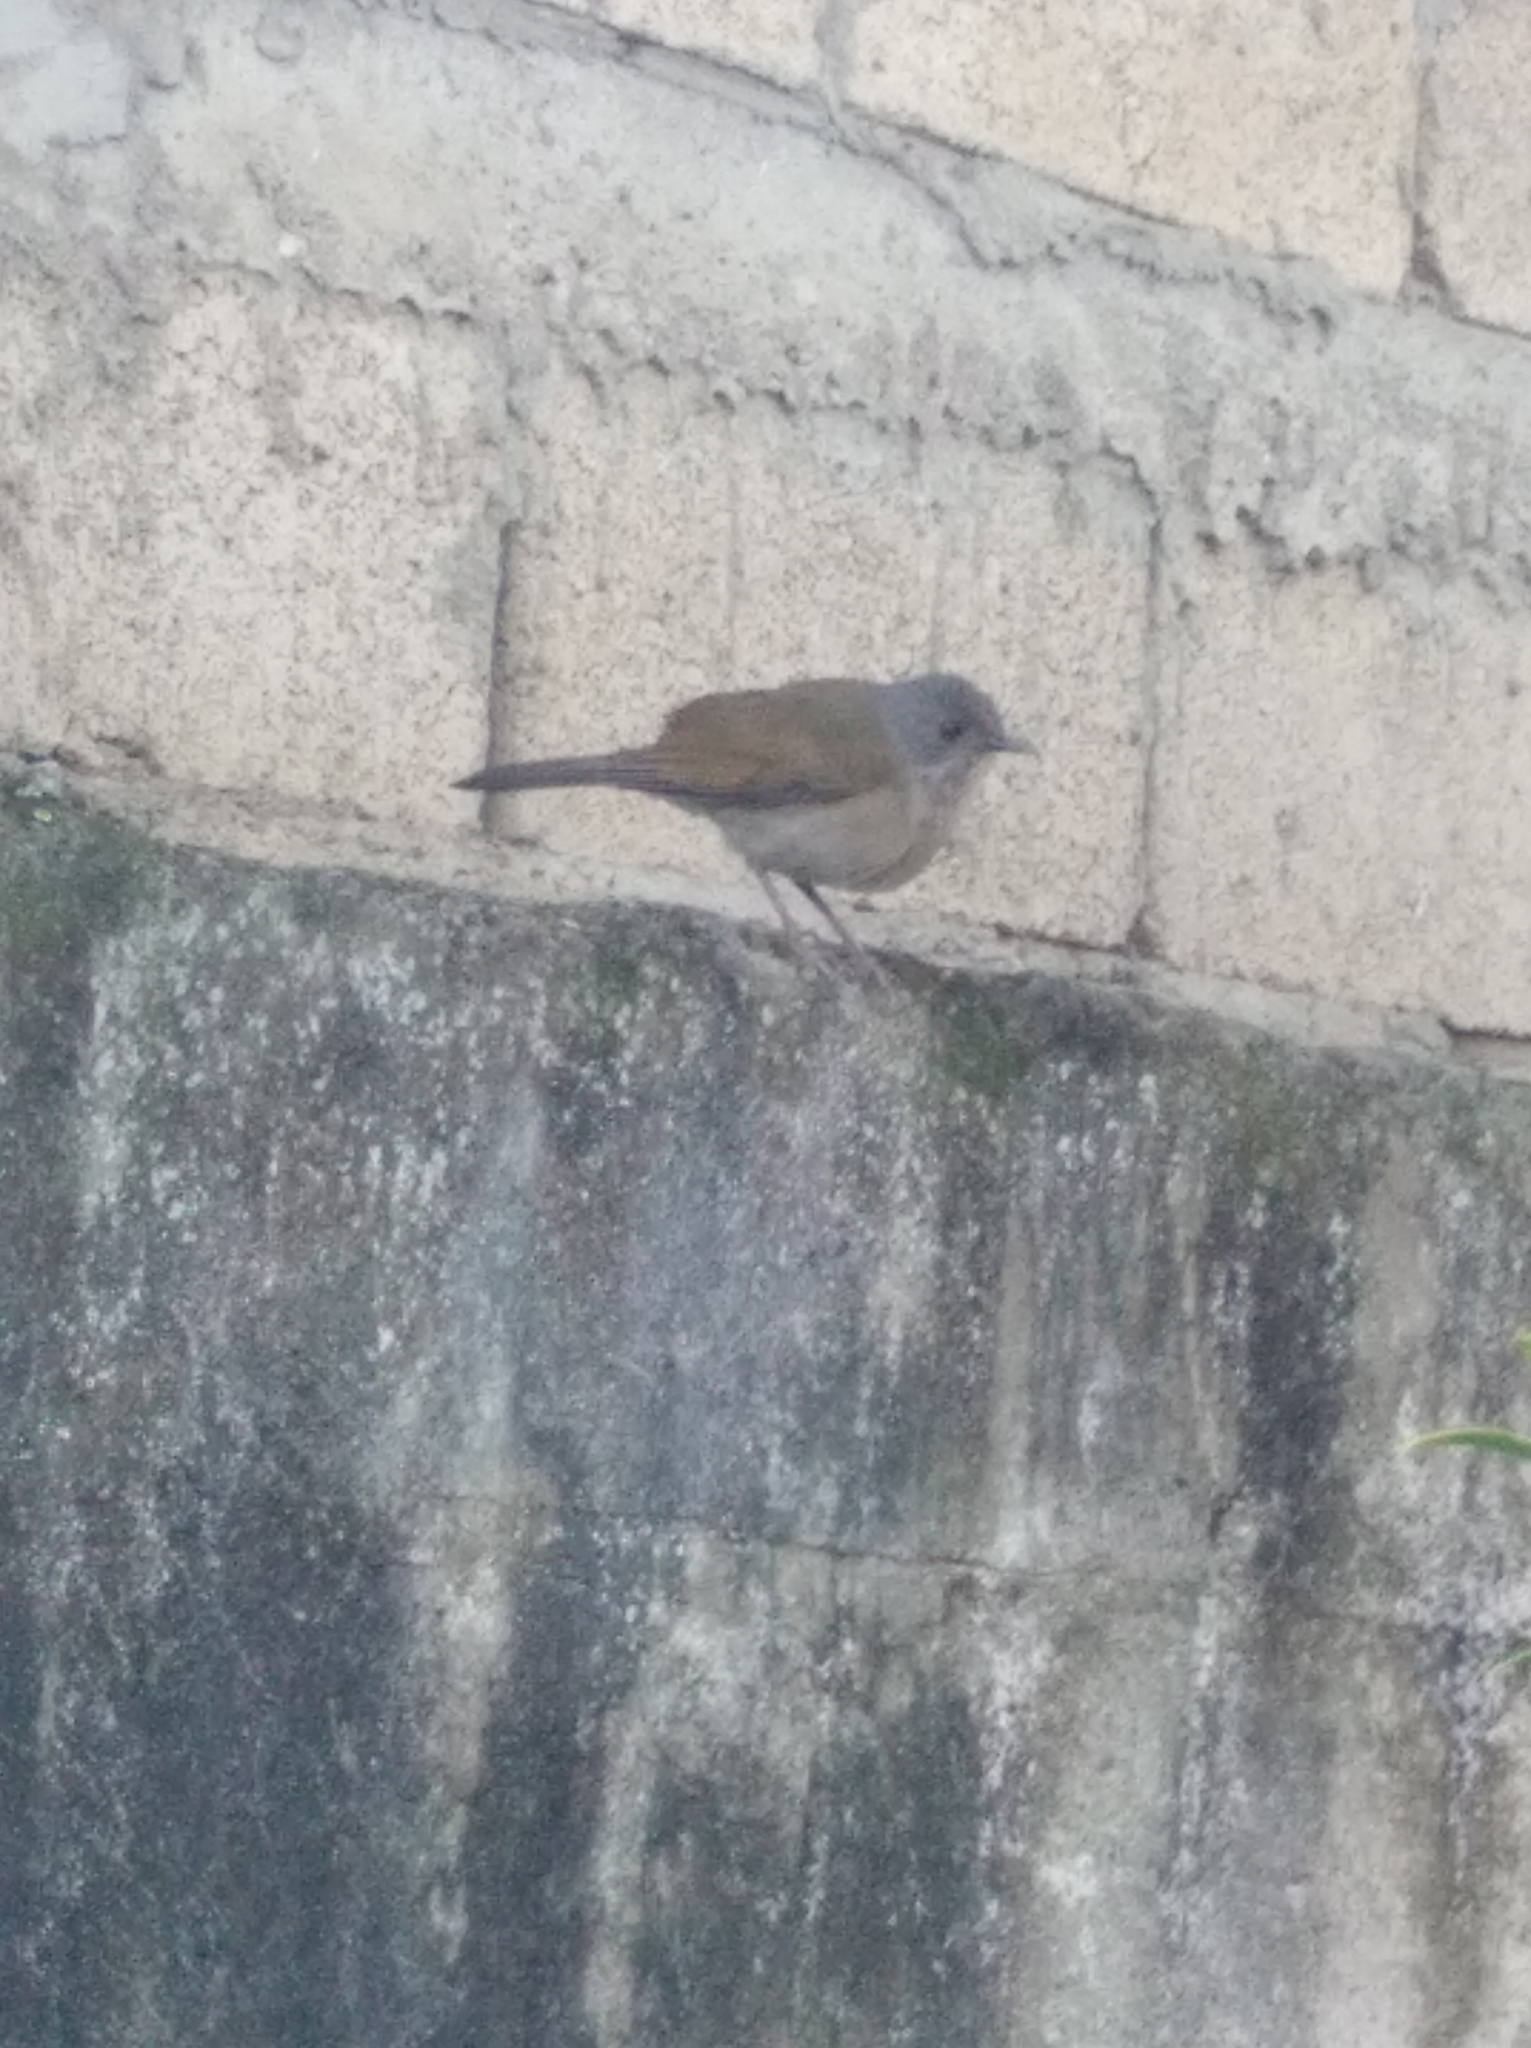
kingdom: Animalia
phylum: Chordata
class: Aves
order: Passeriformes
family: Turdidae
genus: Turdus
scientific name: Turdus leucomelas
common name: Pale-breasted thrush
